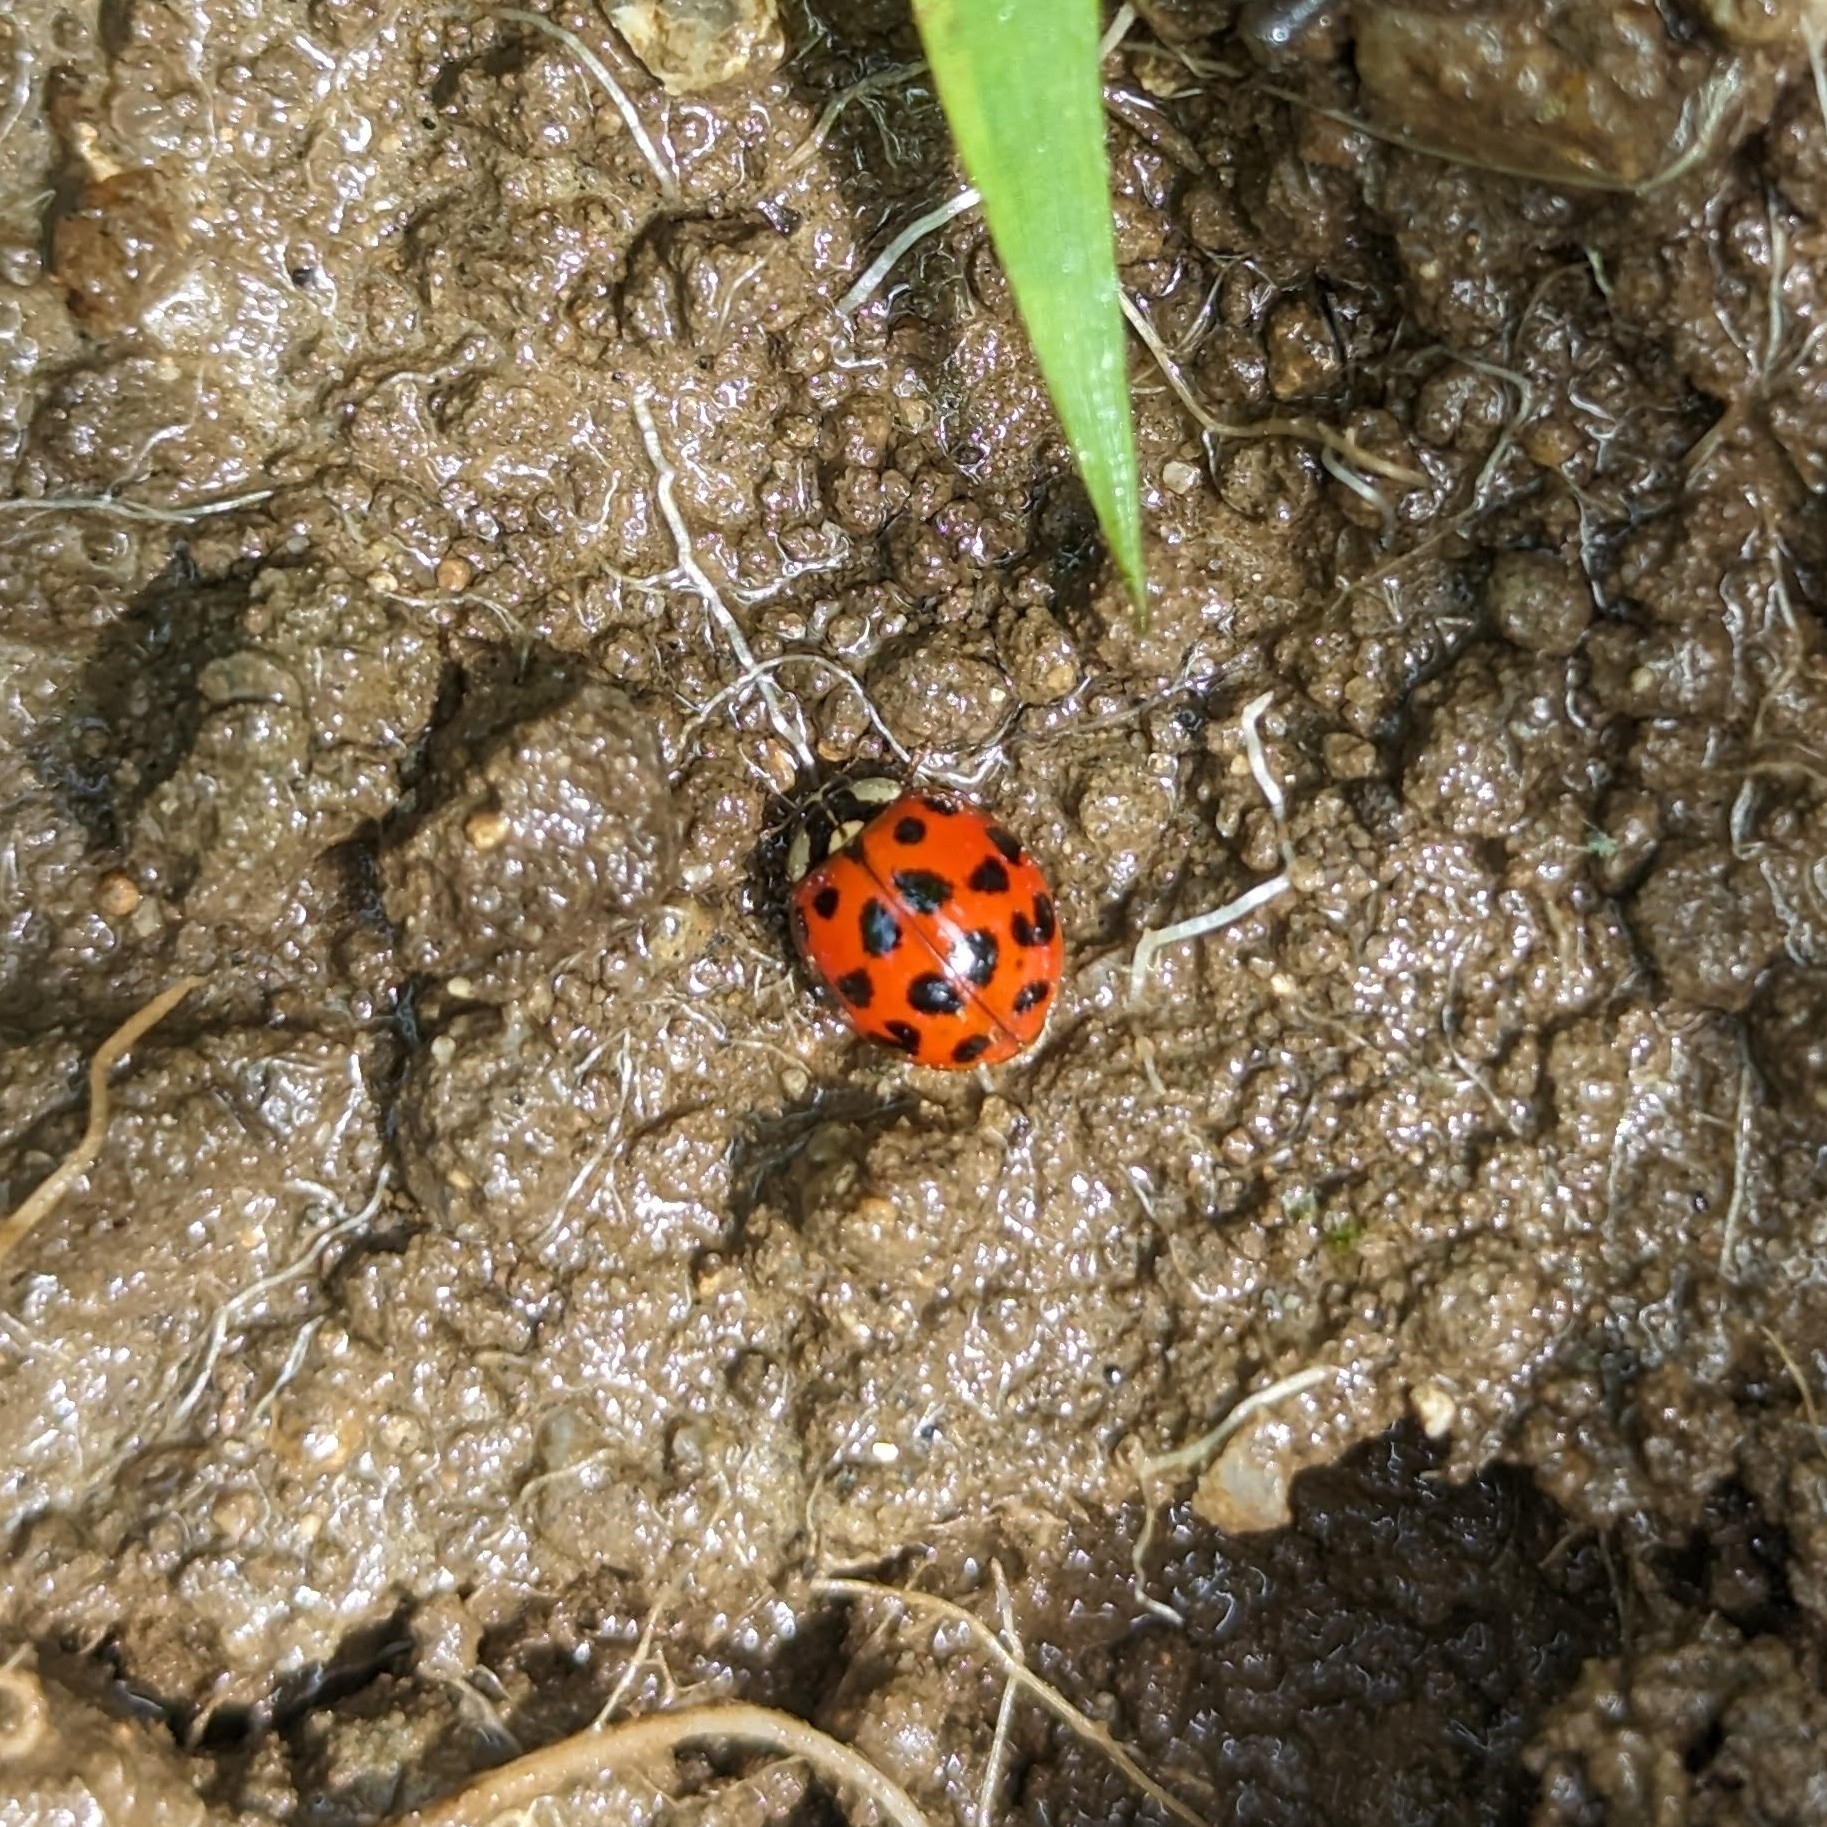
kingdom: Animalia
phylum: Arthropoda
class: Insecta
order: Coleoptera
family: Coccinellidae
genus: Harmonia
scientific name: Harmonia axyridis
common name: Harlequin ladybird
